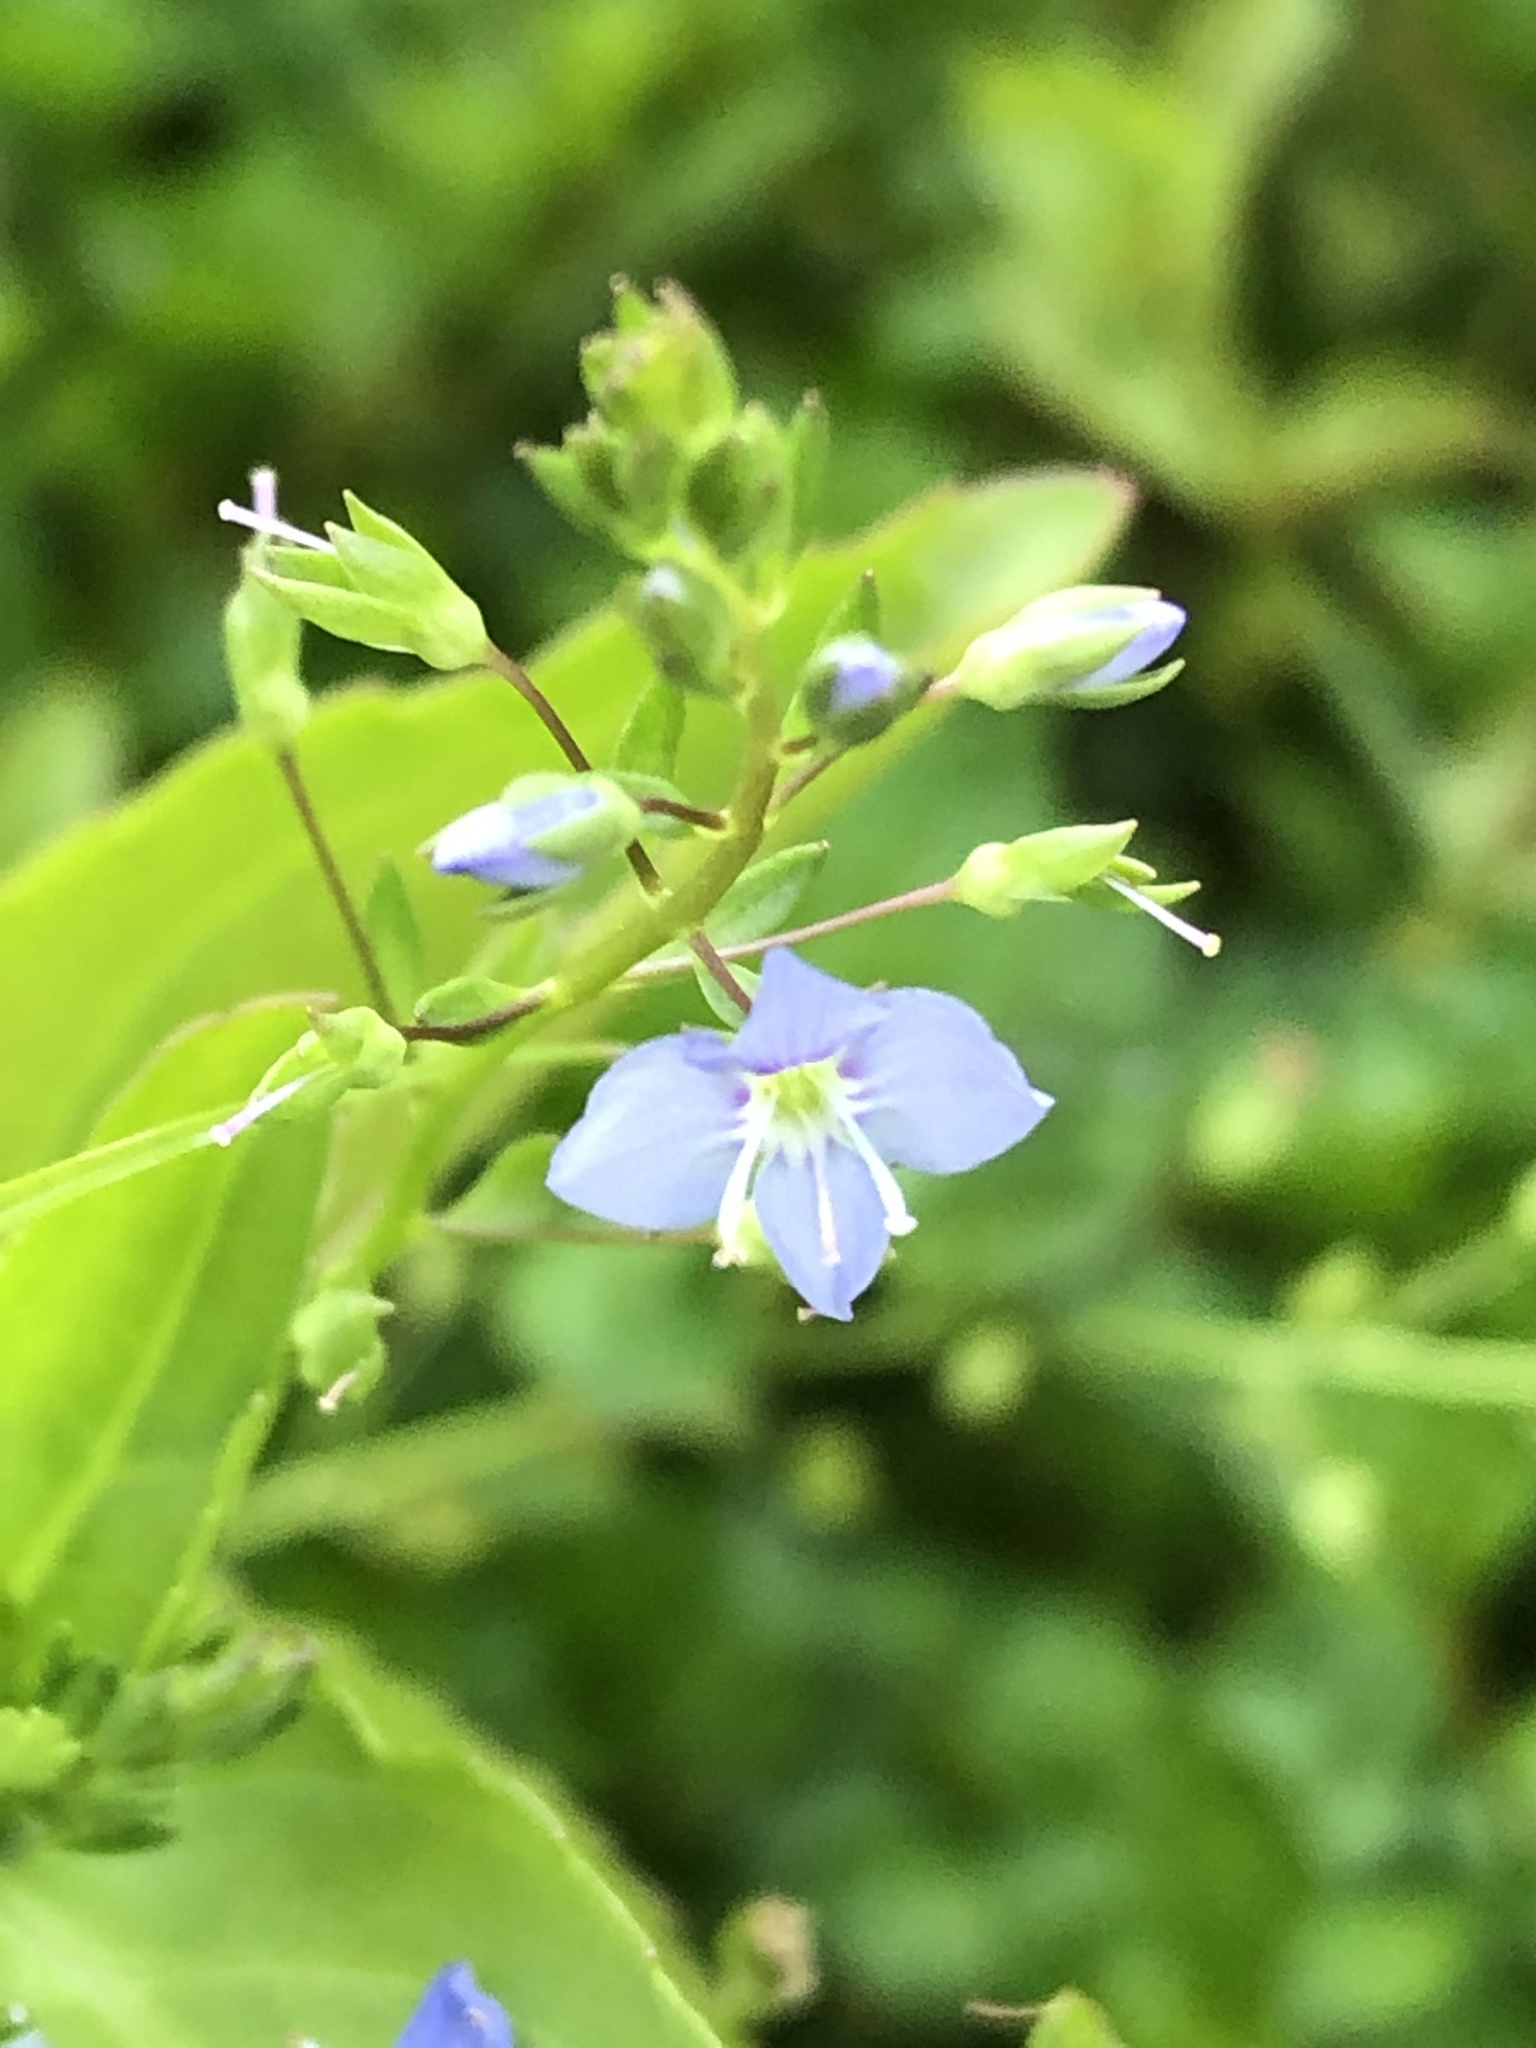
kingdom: Plantae
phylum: Tracheophyta
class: Magnoliopsida
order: Lamiales
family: Plantaginaceae
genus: Veronica
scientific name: Veronica americana
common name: American brooklime
